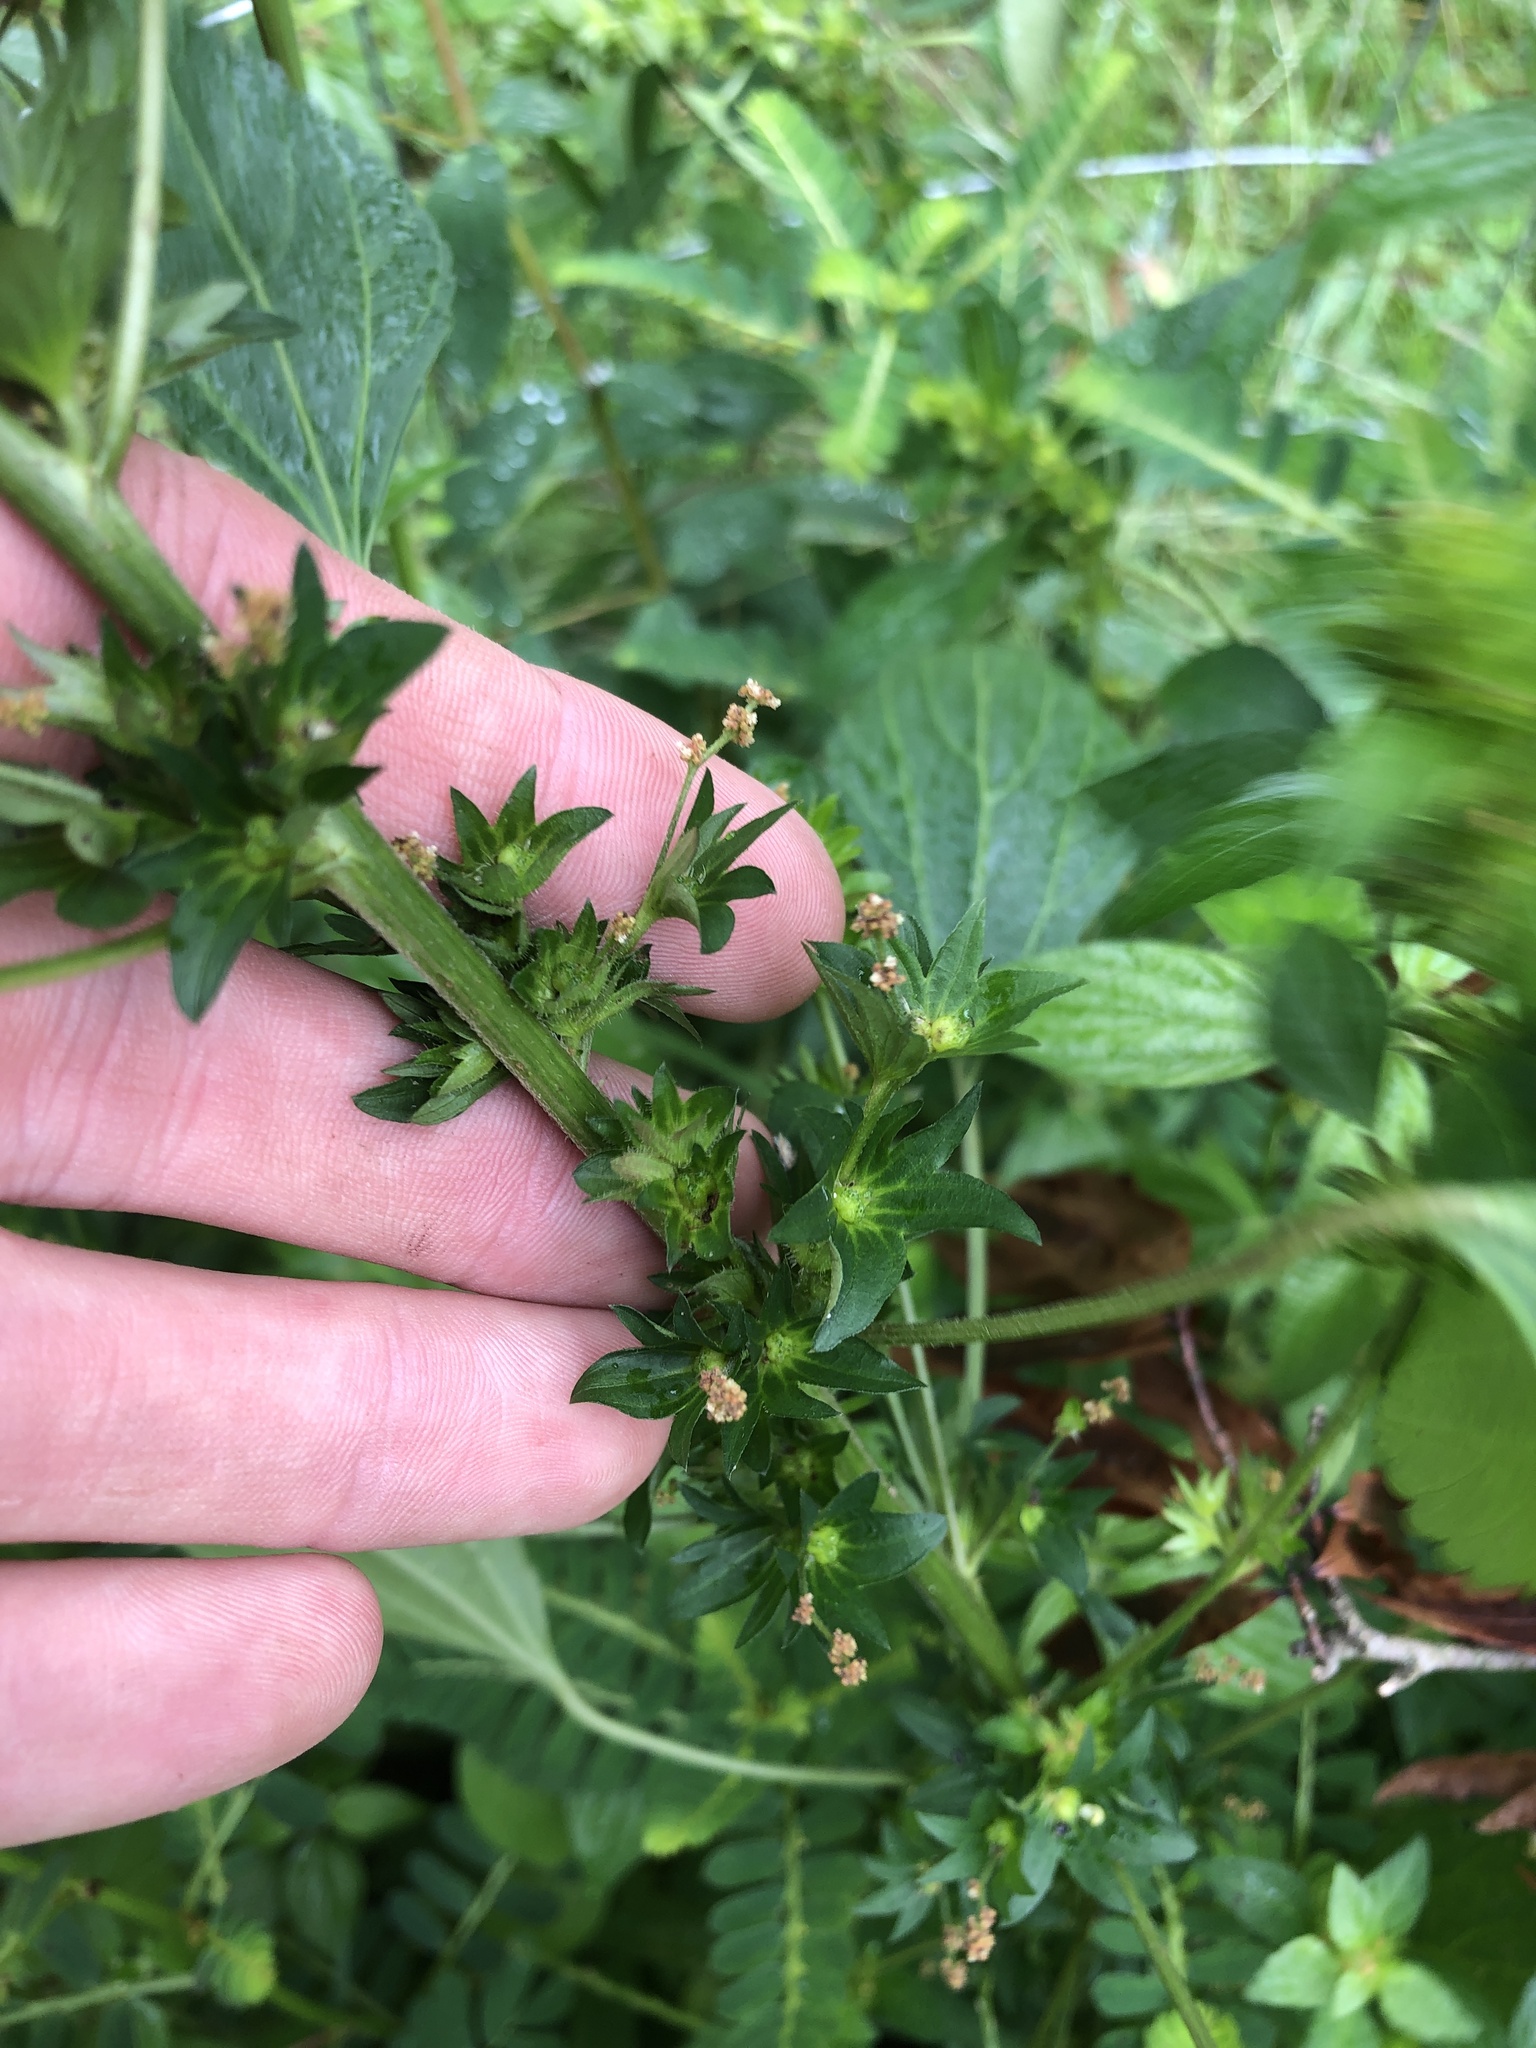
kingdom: Plantae
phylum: Tracheophyta
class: Magnoliopsida
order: Malpighiales
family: Euphorbiaceae
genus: Acalypha
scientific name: Acalypha rhomboidea
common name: Rhombic copperleaf
